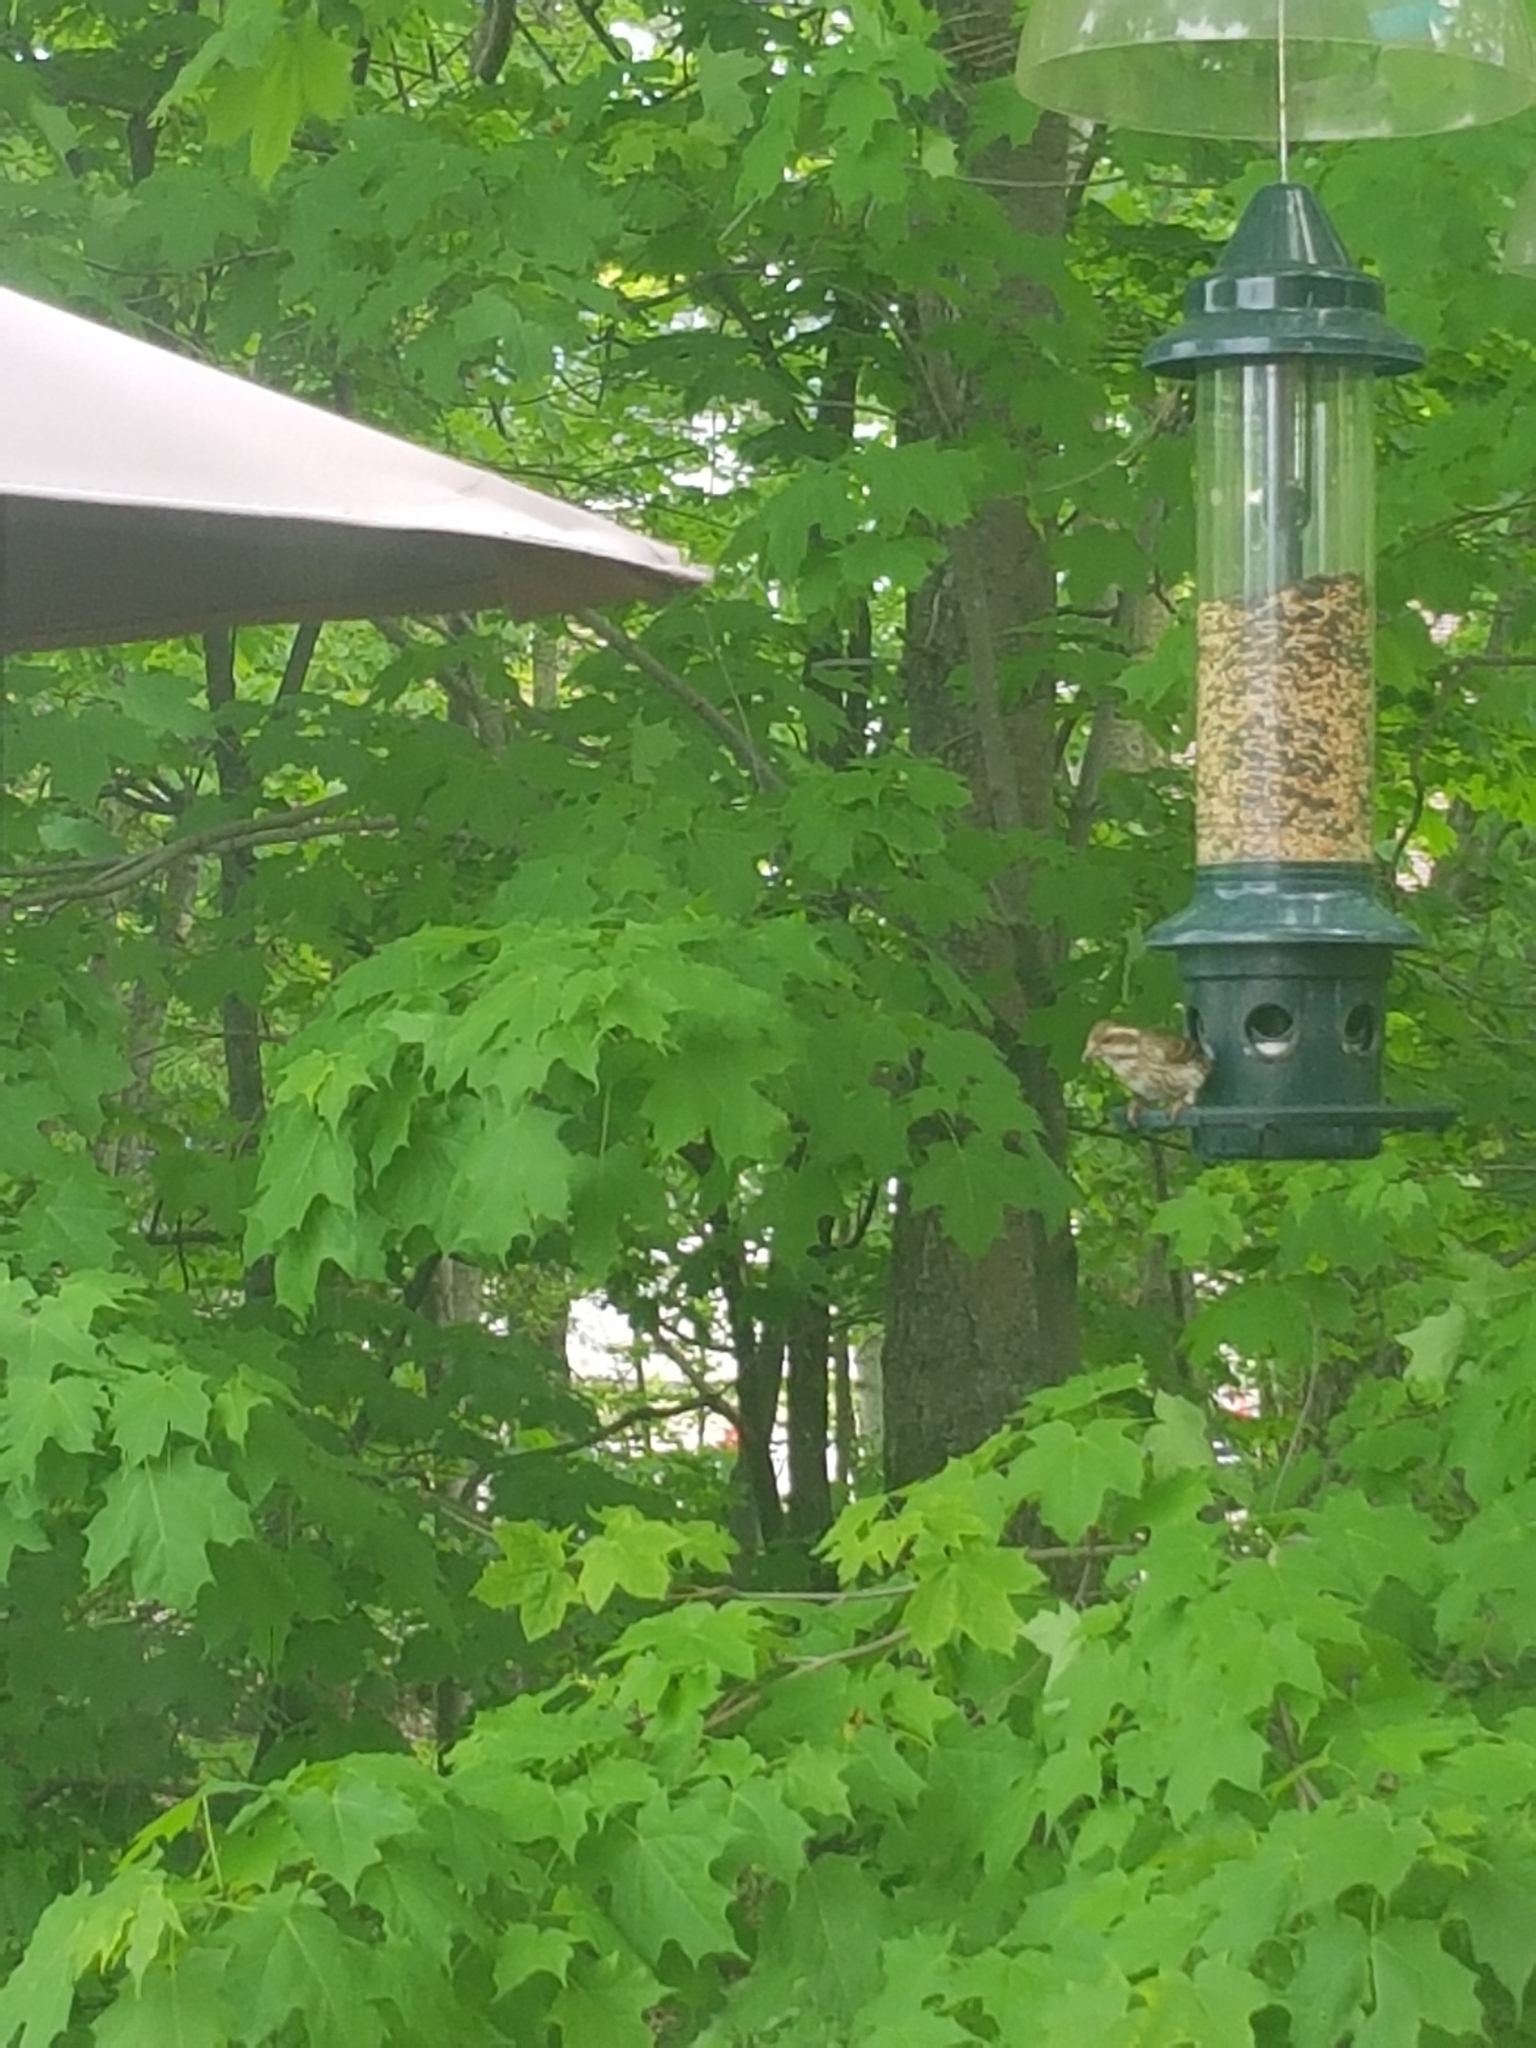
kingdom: Animalia
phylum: Chordata
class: Aves
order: Passeriformes
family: Fringillidae
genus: Haemorhous
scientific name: Haemorhous purpureus
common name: Purple finch
